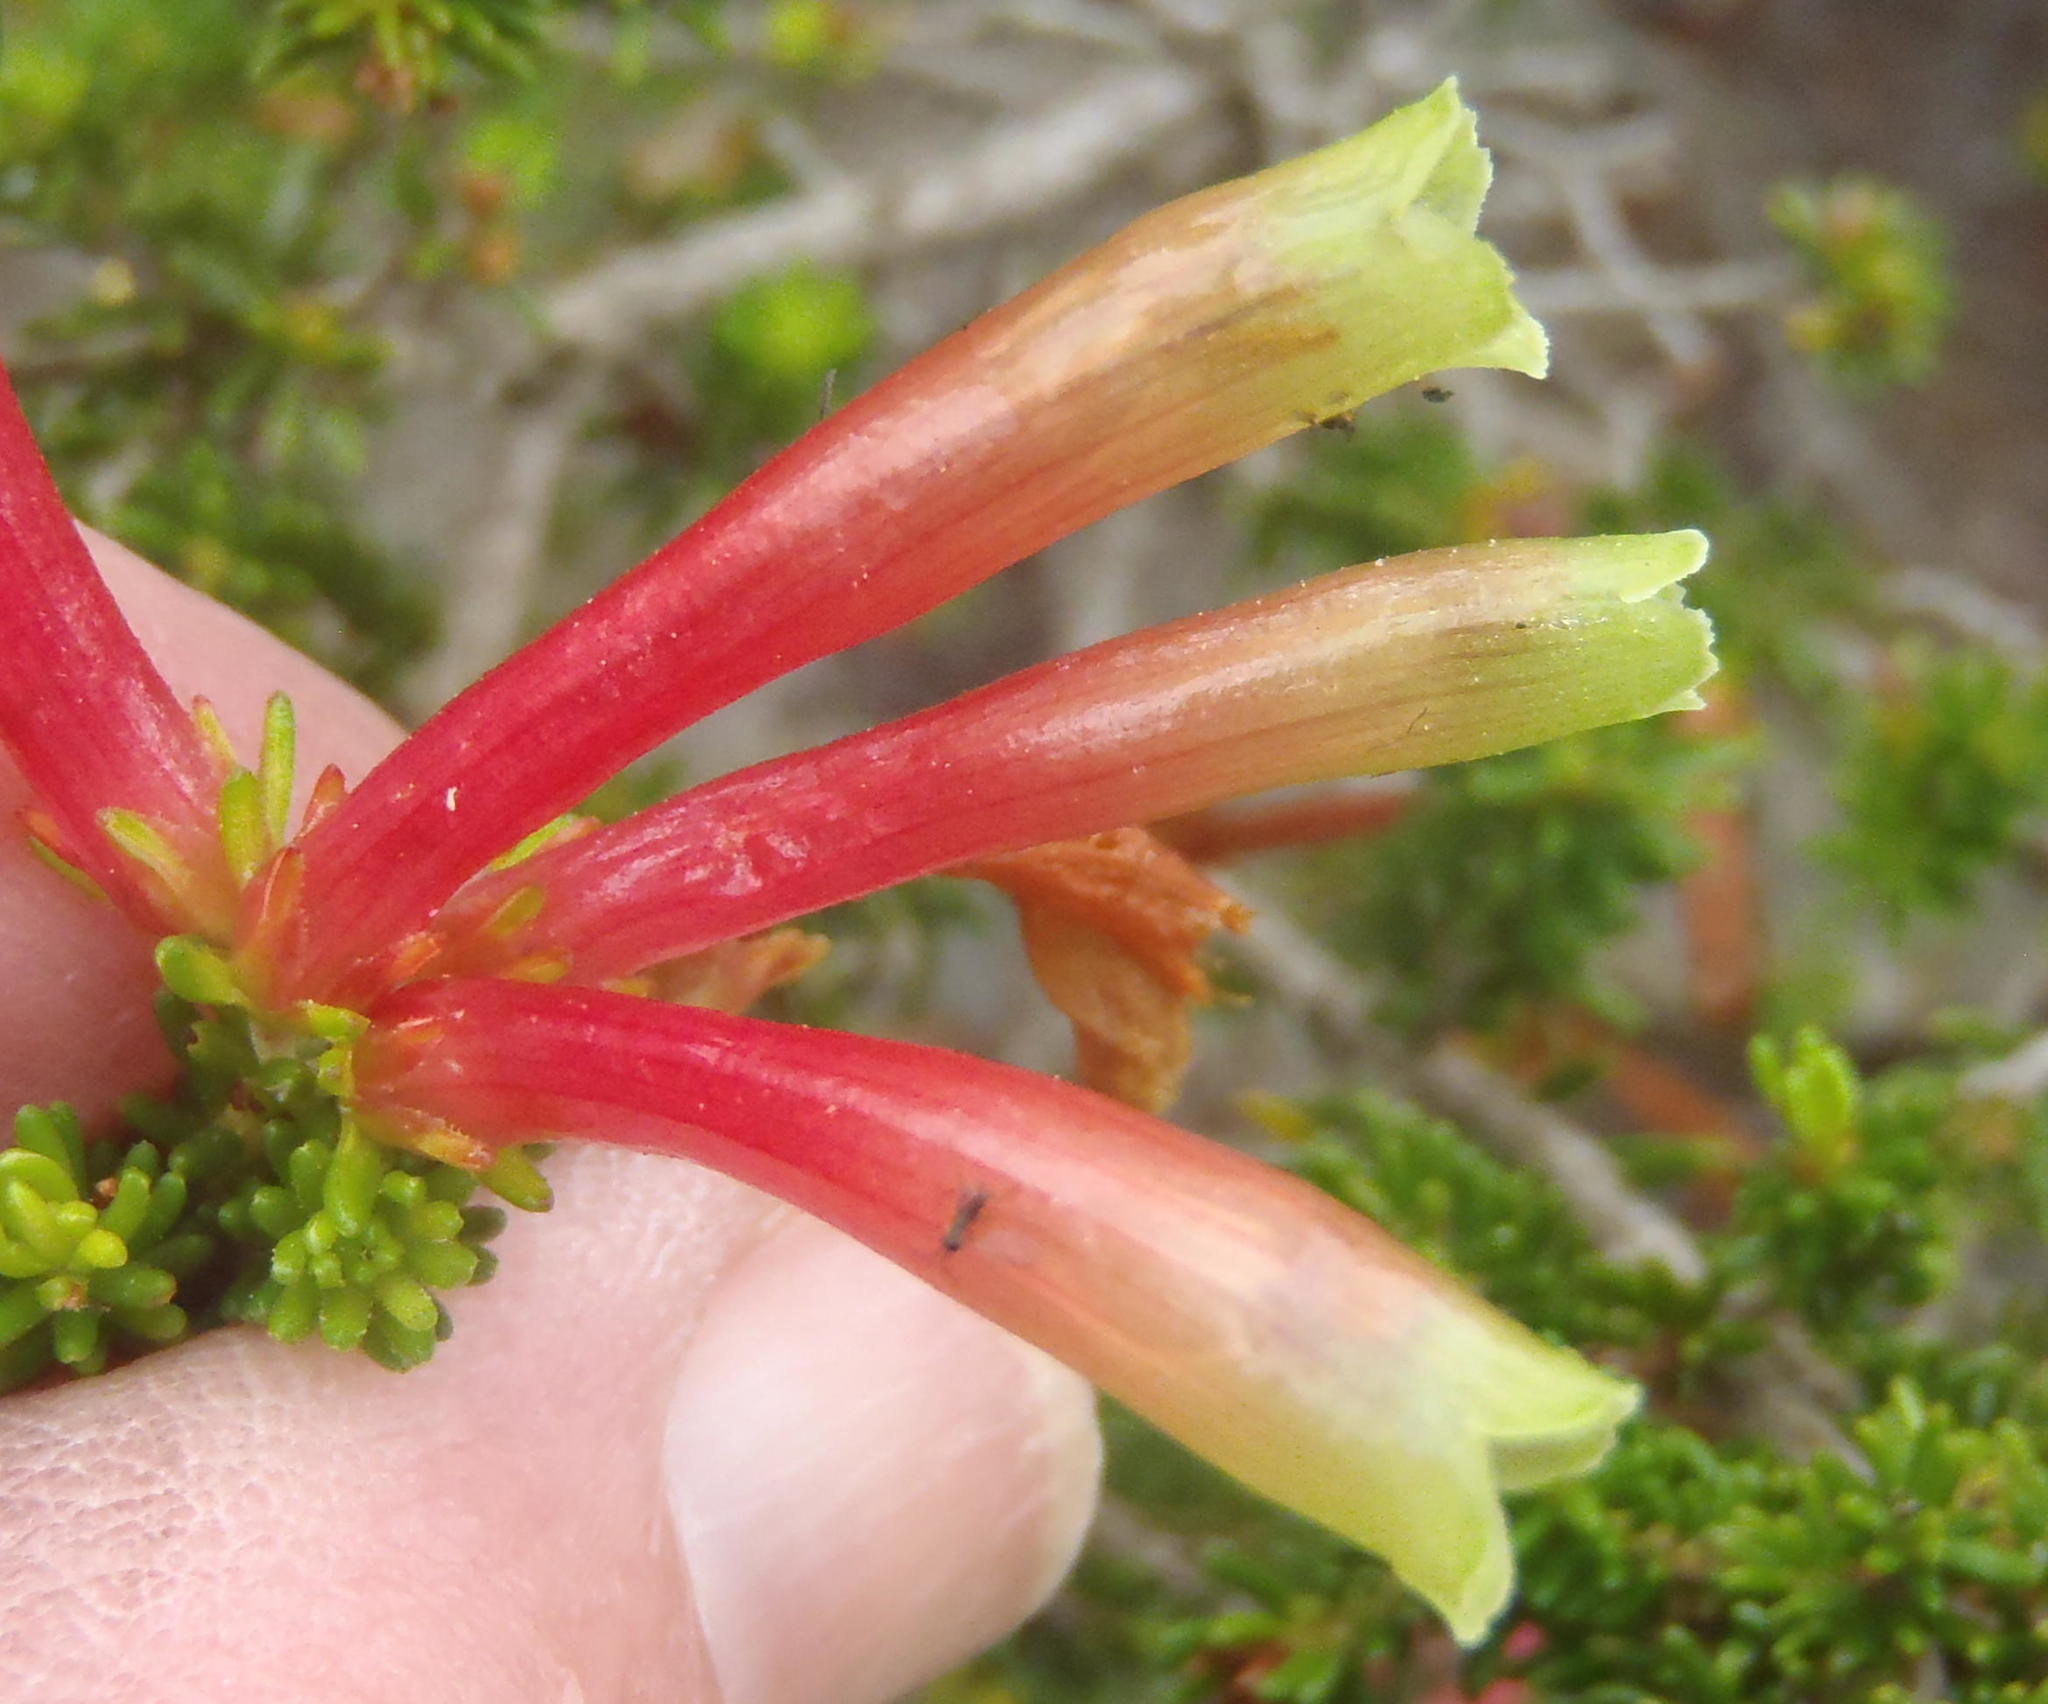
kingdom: Plantae
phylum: Tracheophyta
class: Magnoliopsida
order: Ericales
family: Ericaceae
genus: Erica
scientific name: Erica versicolor
